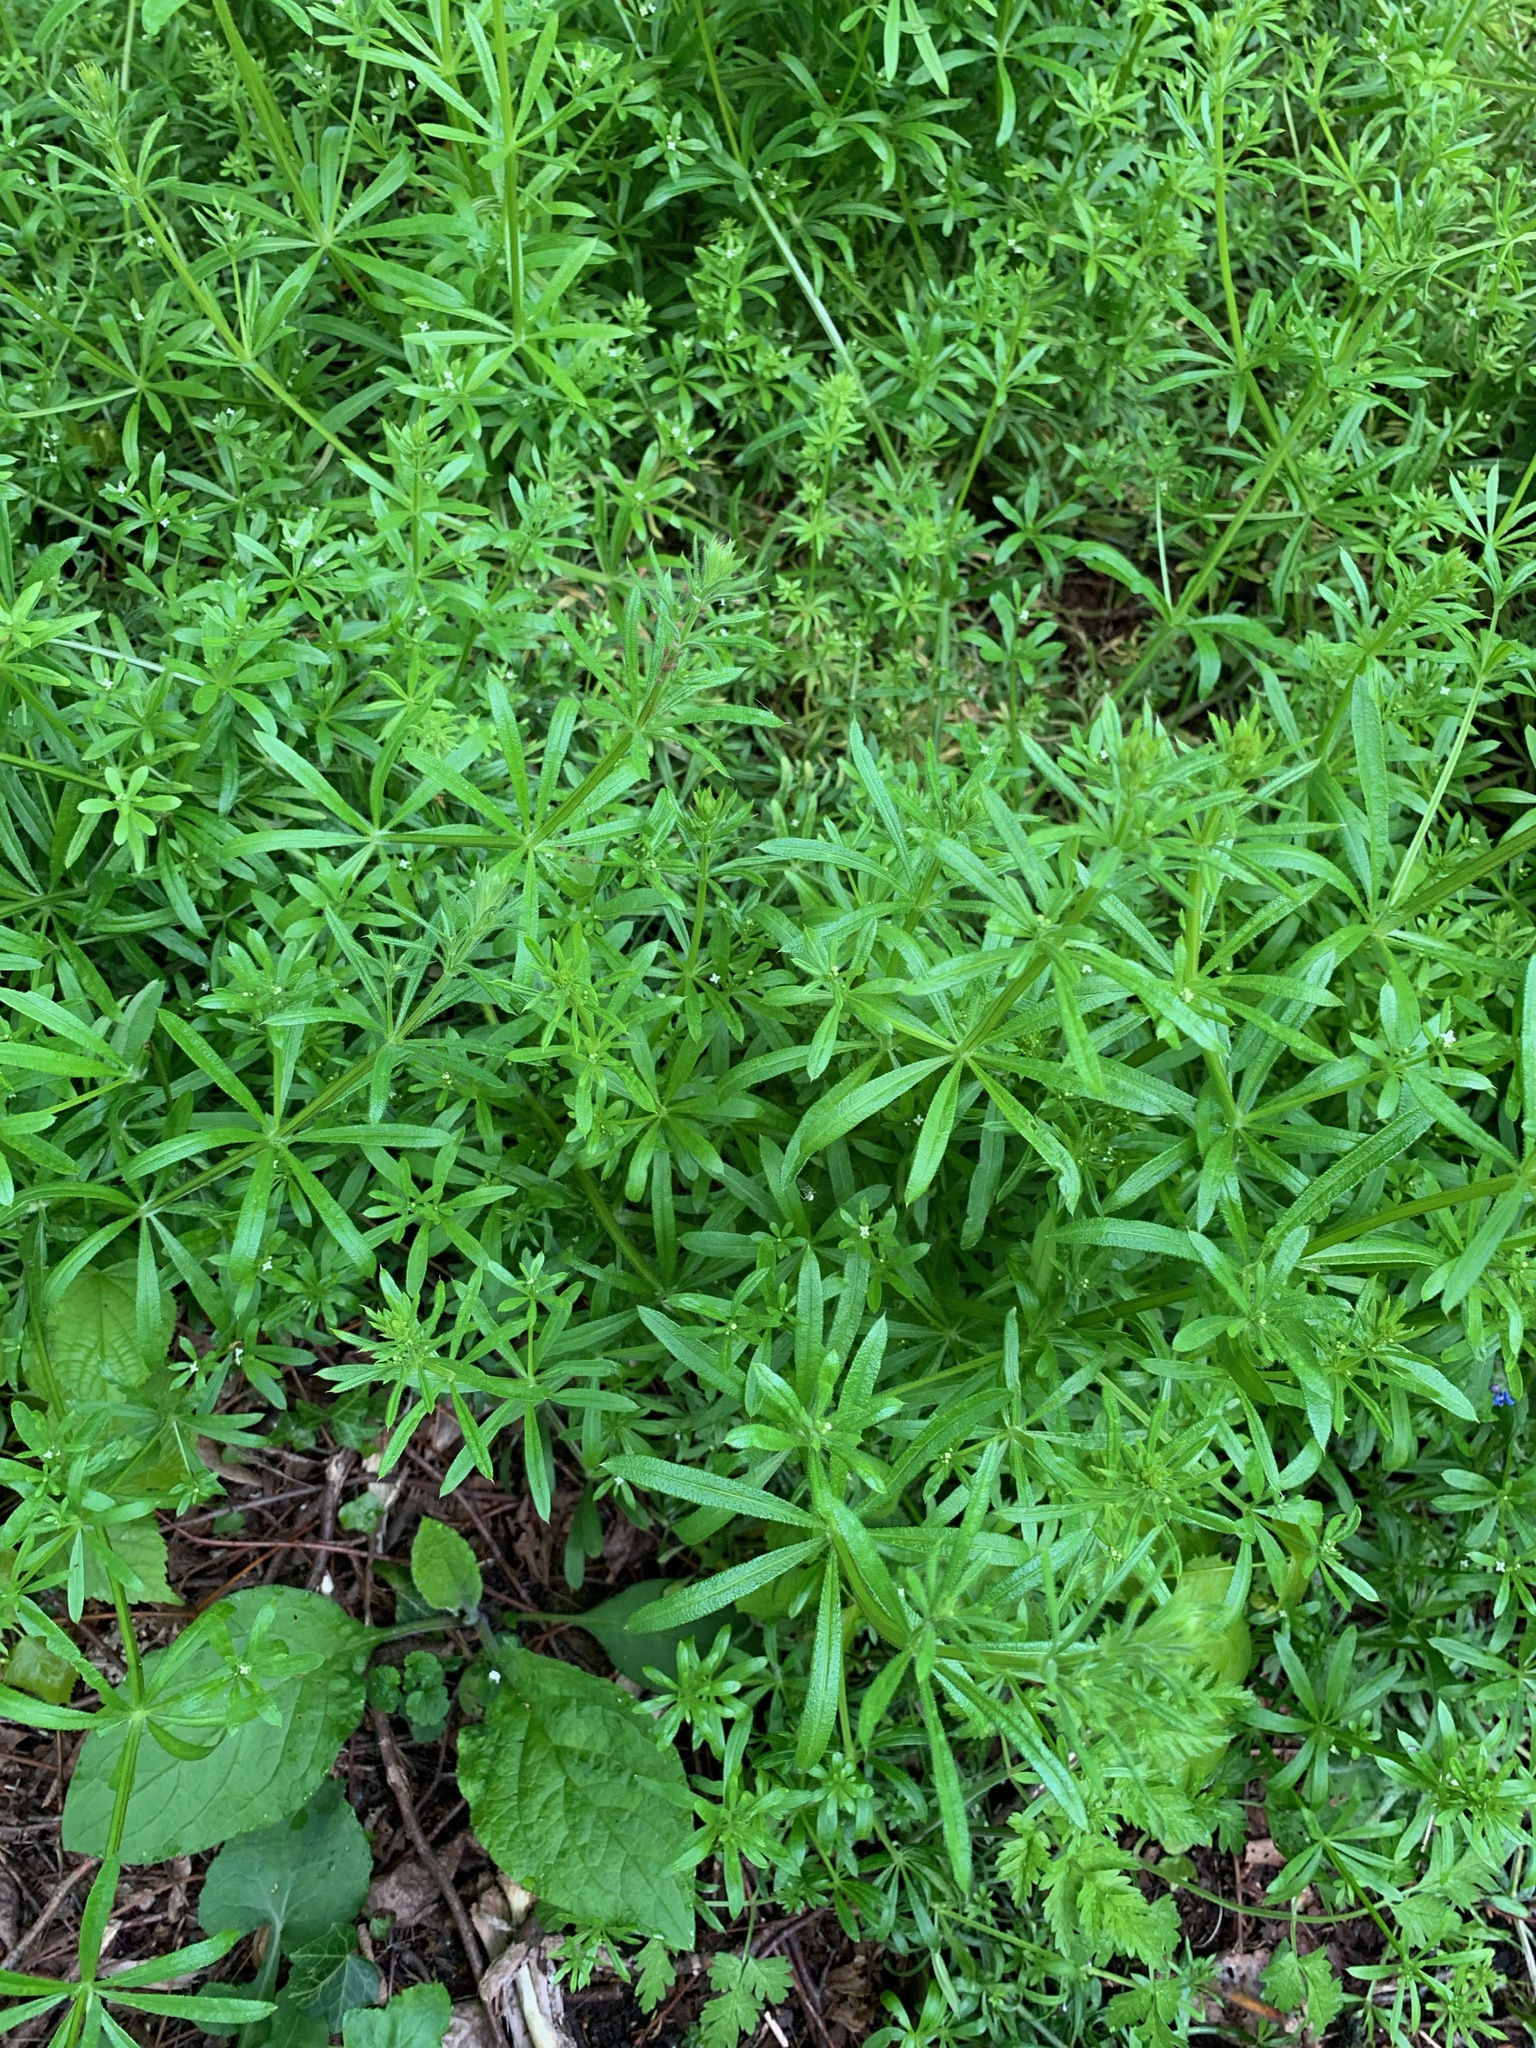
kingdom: Plantae
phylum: Tracheophyta
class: Magnoliopsida
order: Gentianales
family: Rubiaceae
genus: Galium
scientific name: Galium aparine
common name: Cleavers
